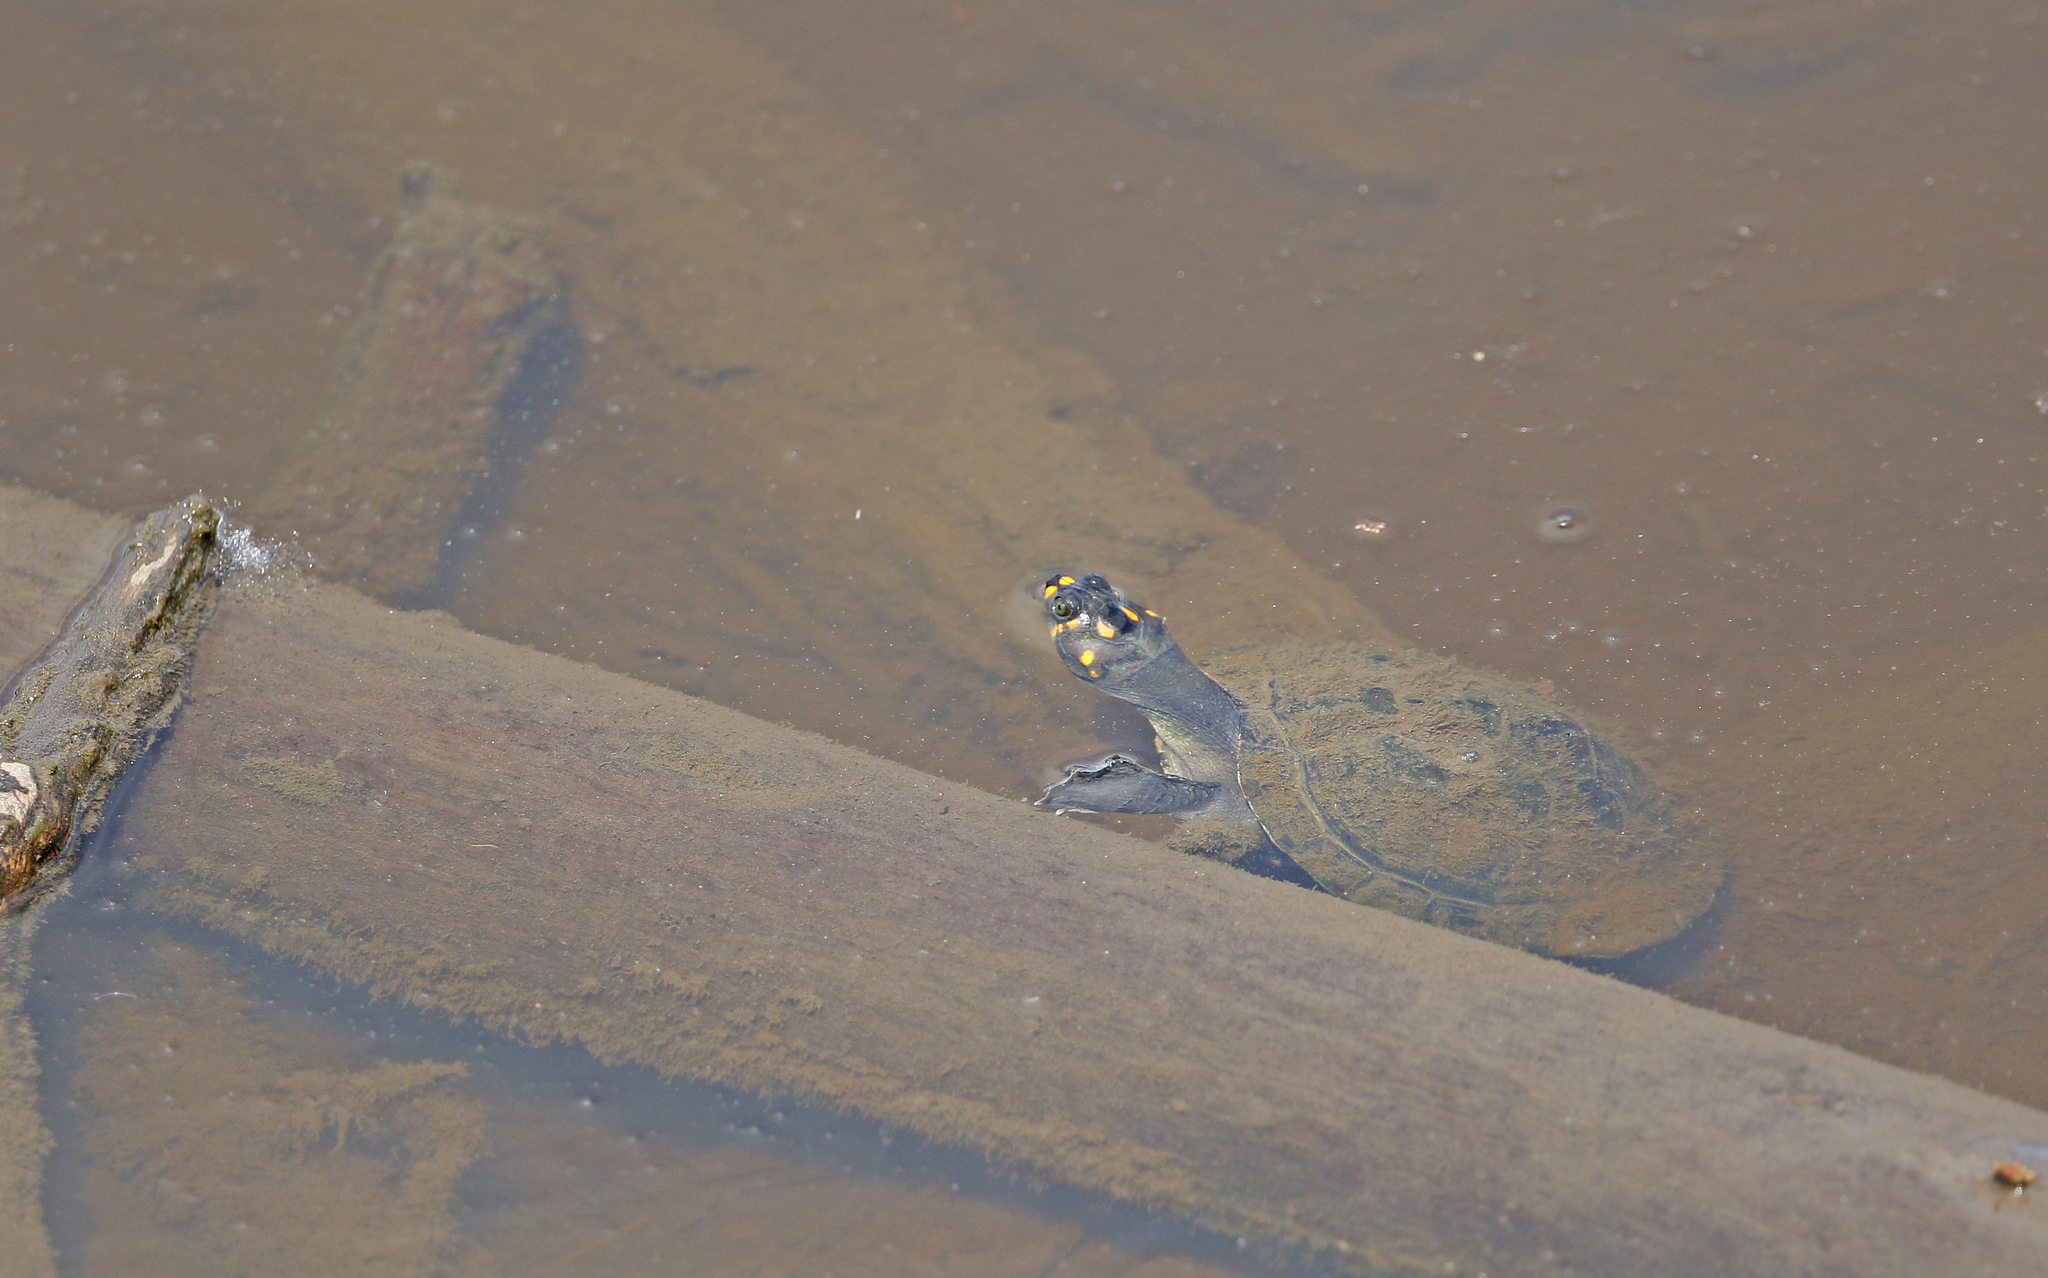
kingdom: Animalia
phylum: Chordata
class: Testudines
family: Podocnemididae
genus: Podocnemis
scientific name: Podocnemis unifilis
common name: Yellow-spotted amazon river turtle
